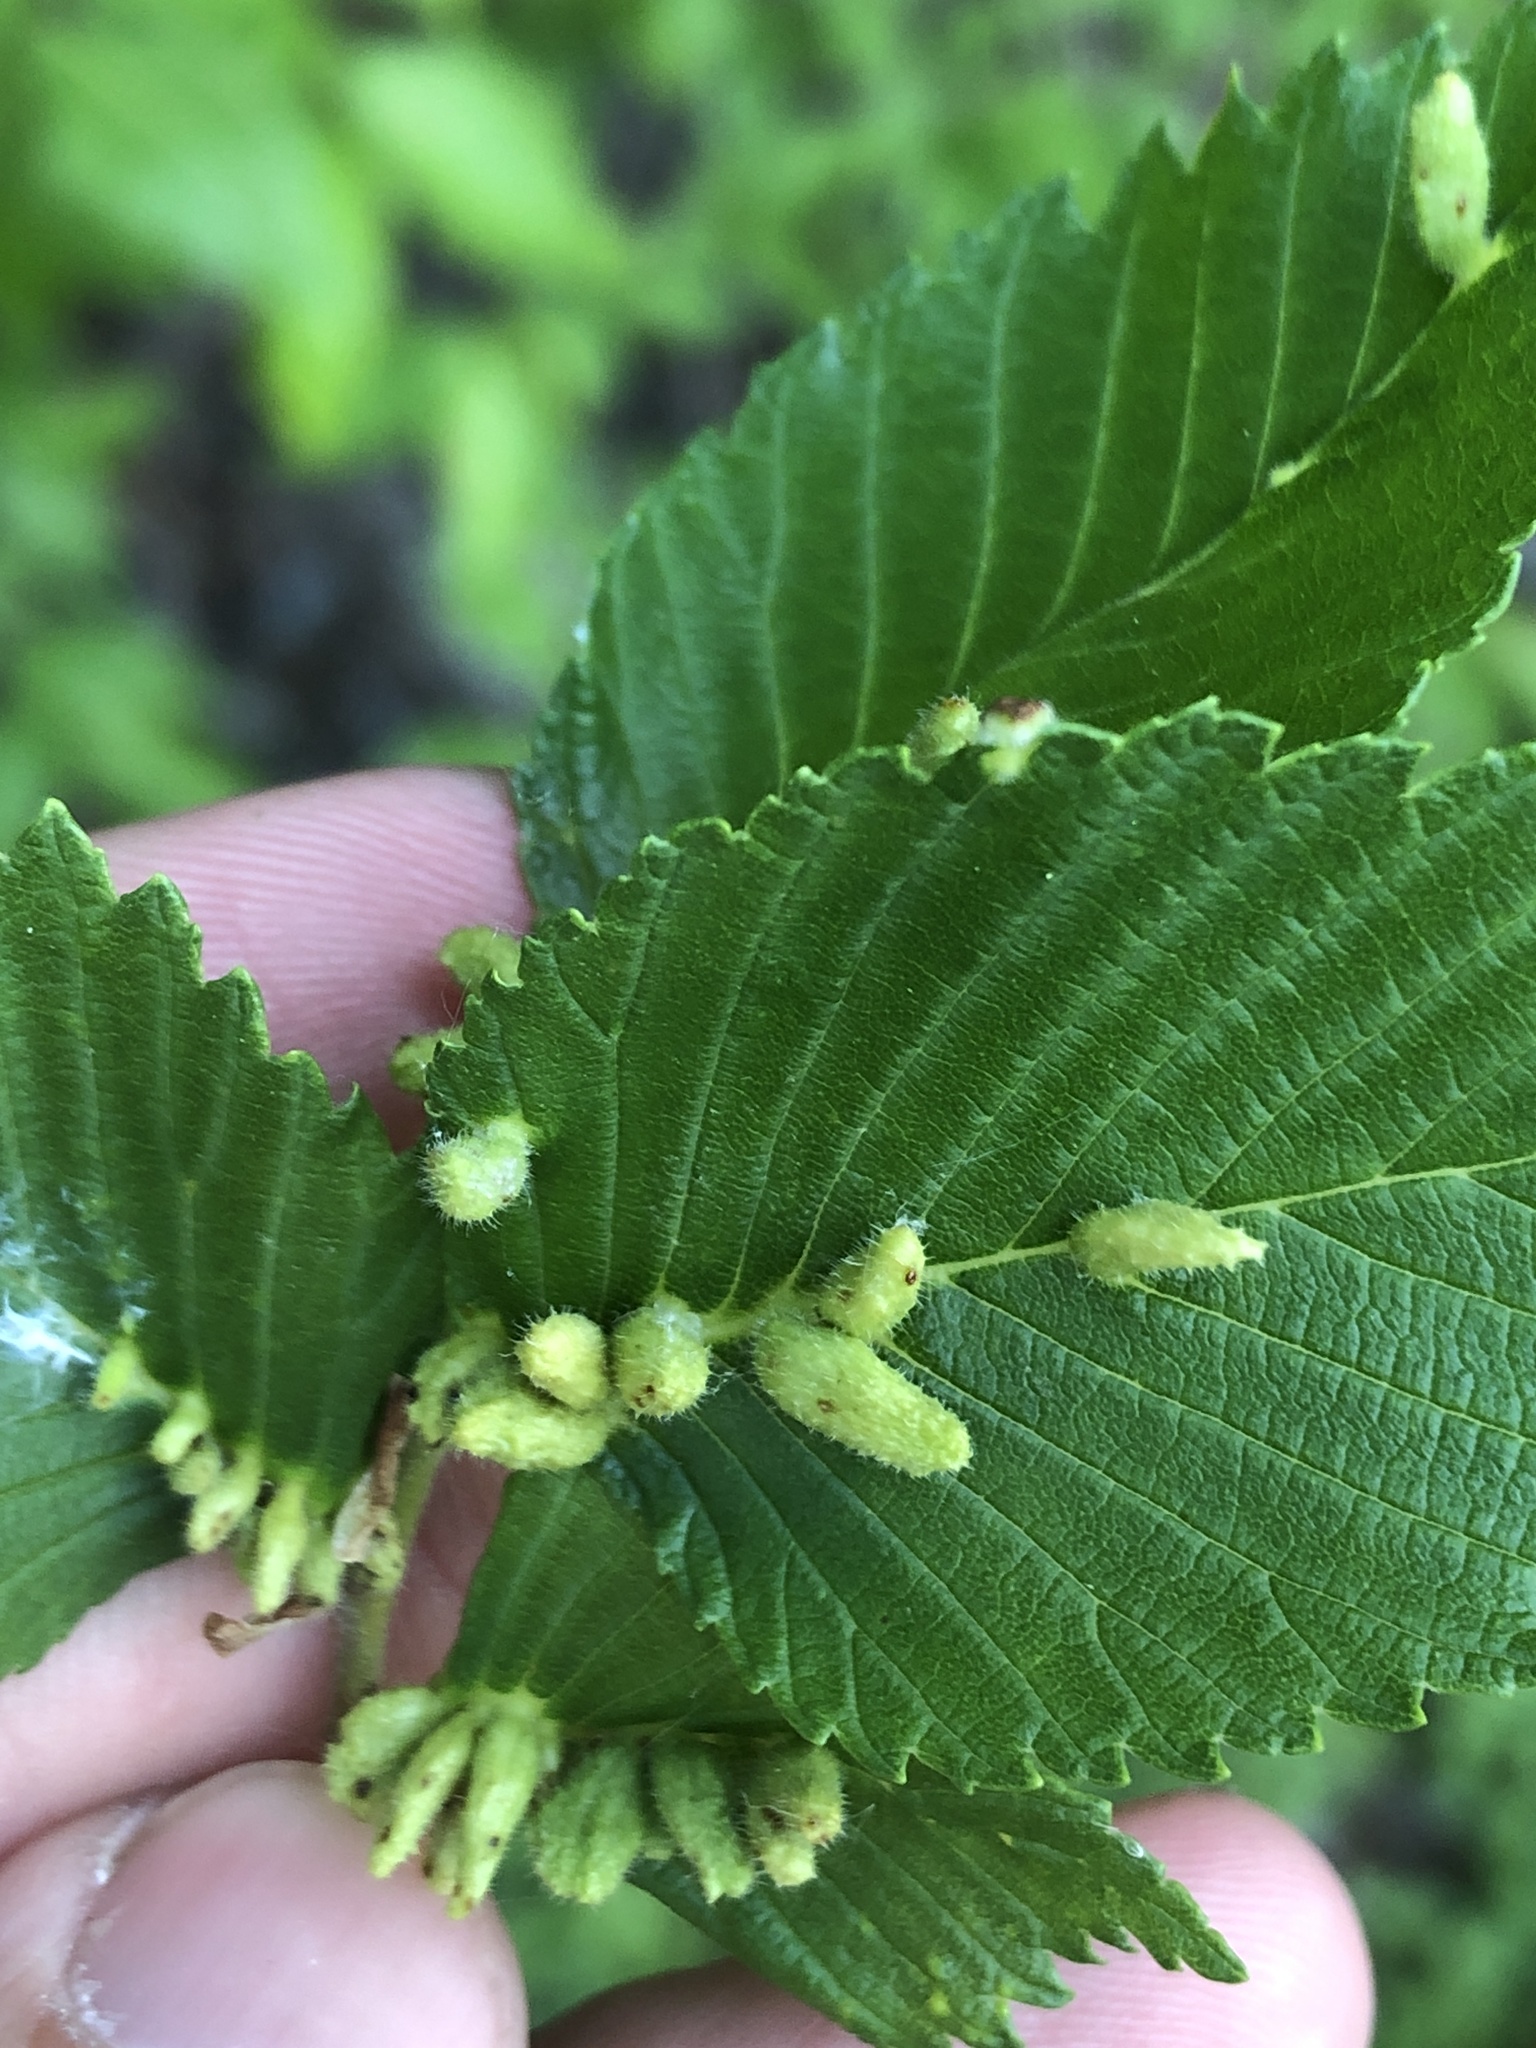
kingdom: Animalia
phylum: Arthropoda
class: Arachnida
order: Trombidiformes
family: Eriophyidae
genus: Aceria
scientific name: Aceria
